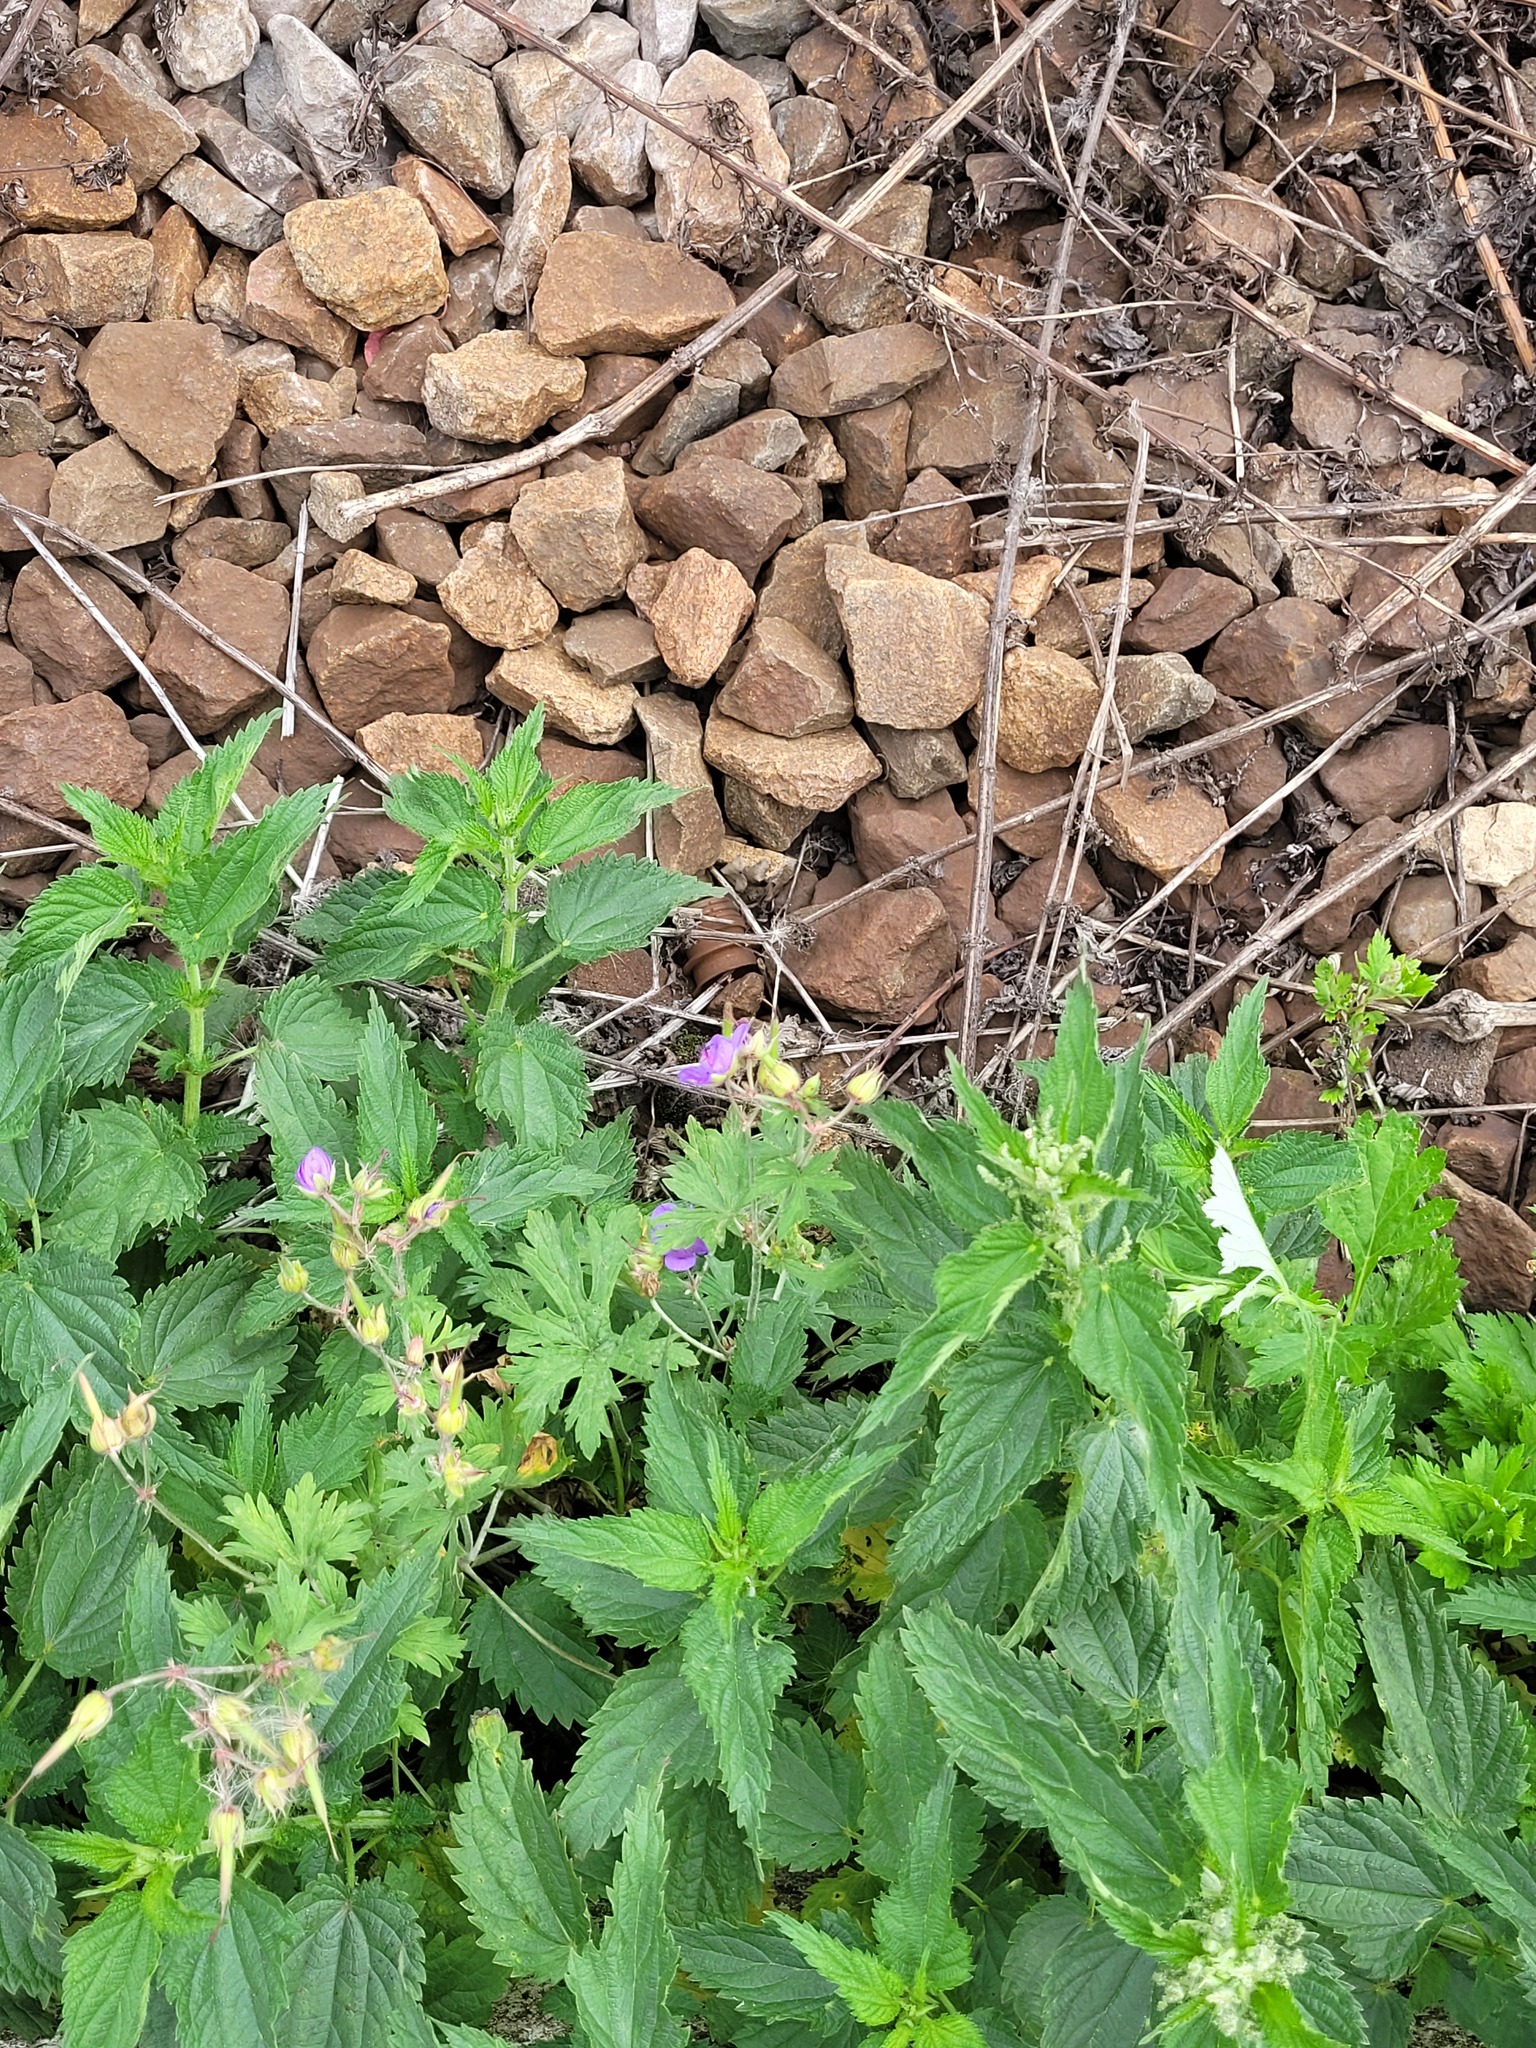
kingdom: Plantae
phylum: Tracheophyta
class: Magnoliopsida
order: Geraniales
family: Geraniaceae
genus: Geranium
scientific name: Geranium pratense
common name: Meadow crane's-bill
